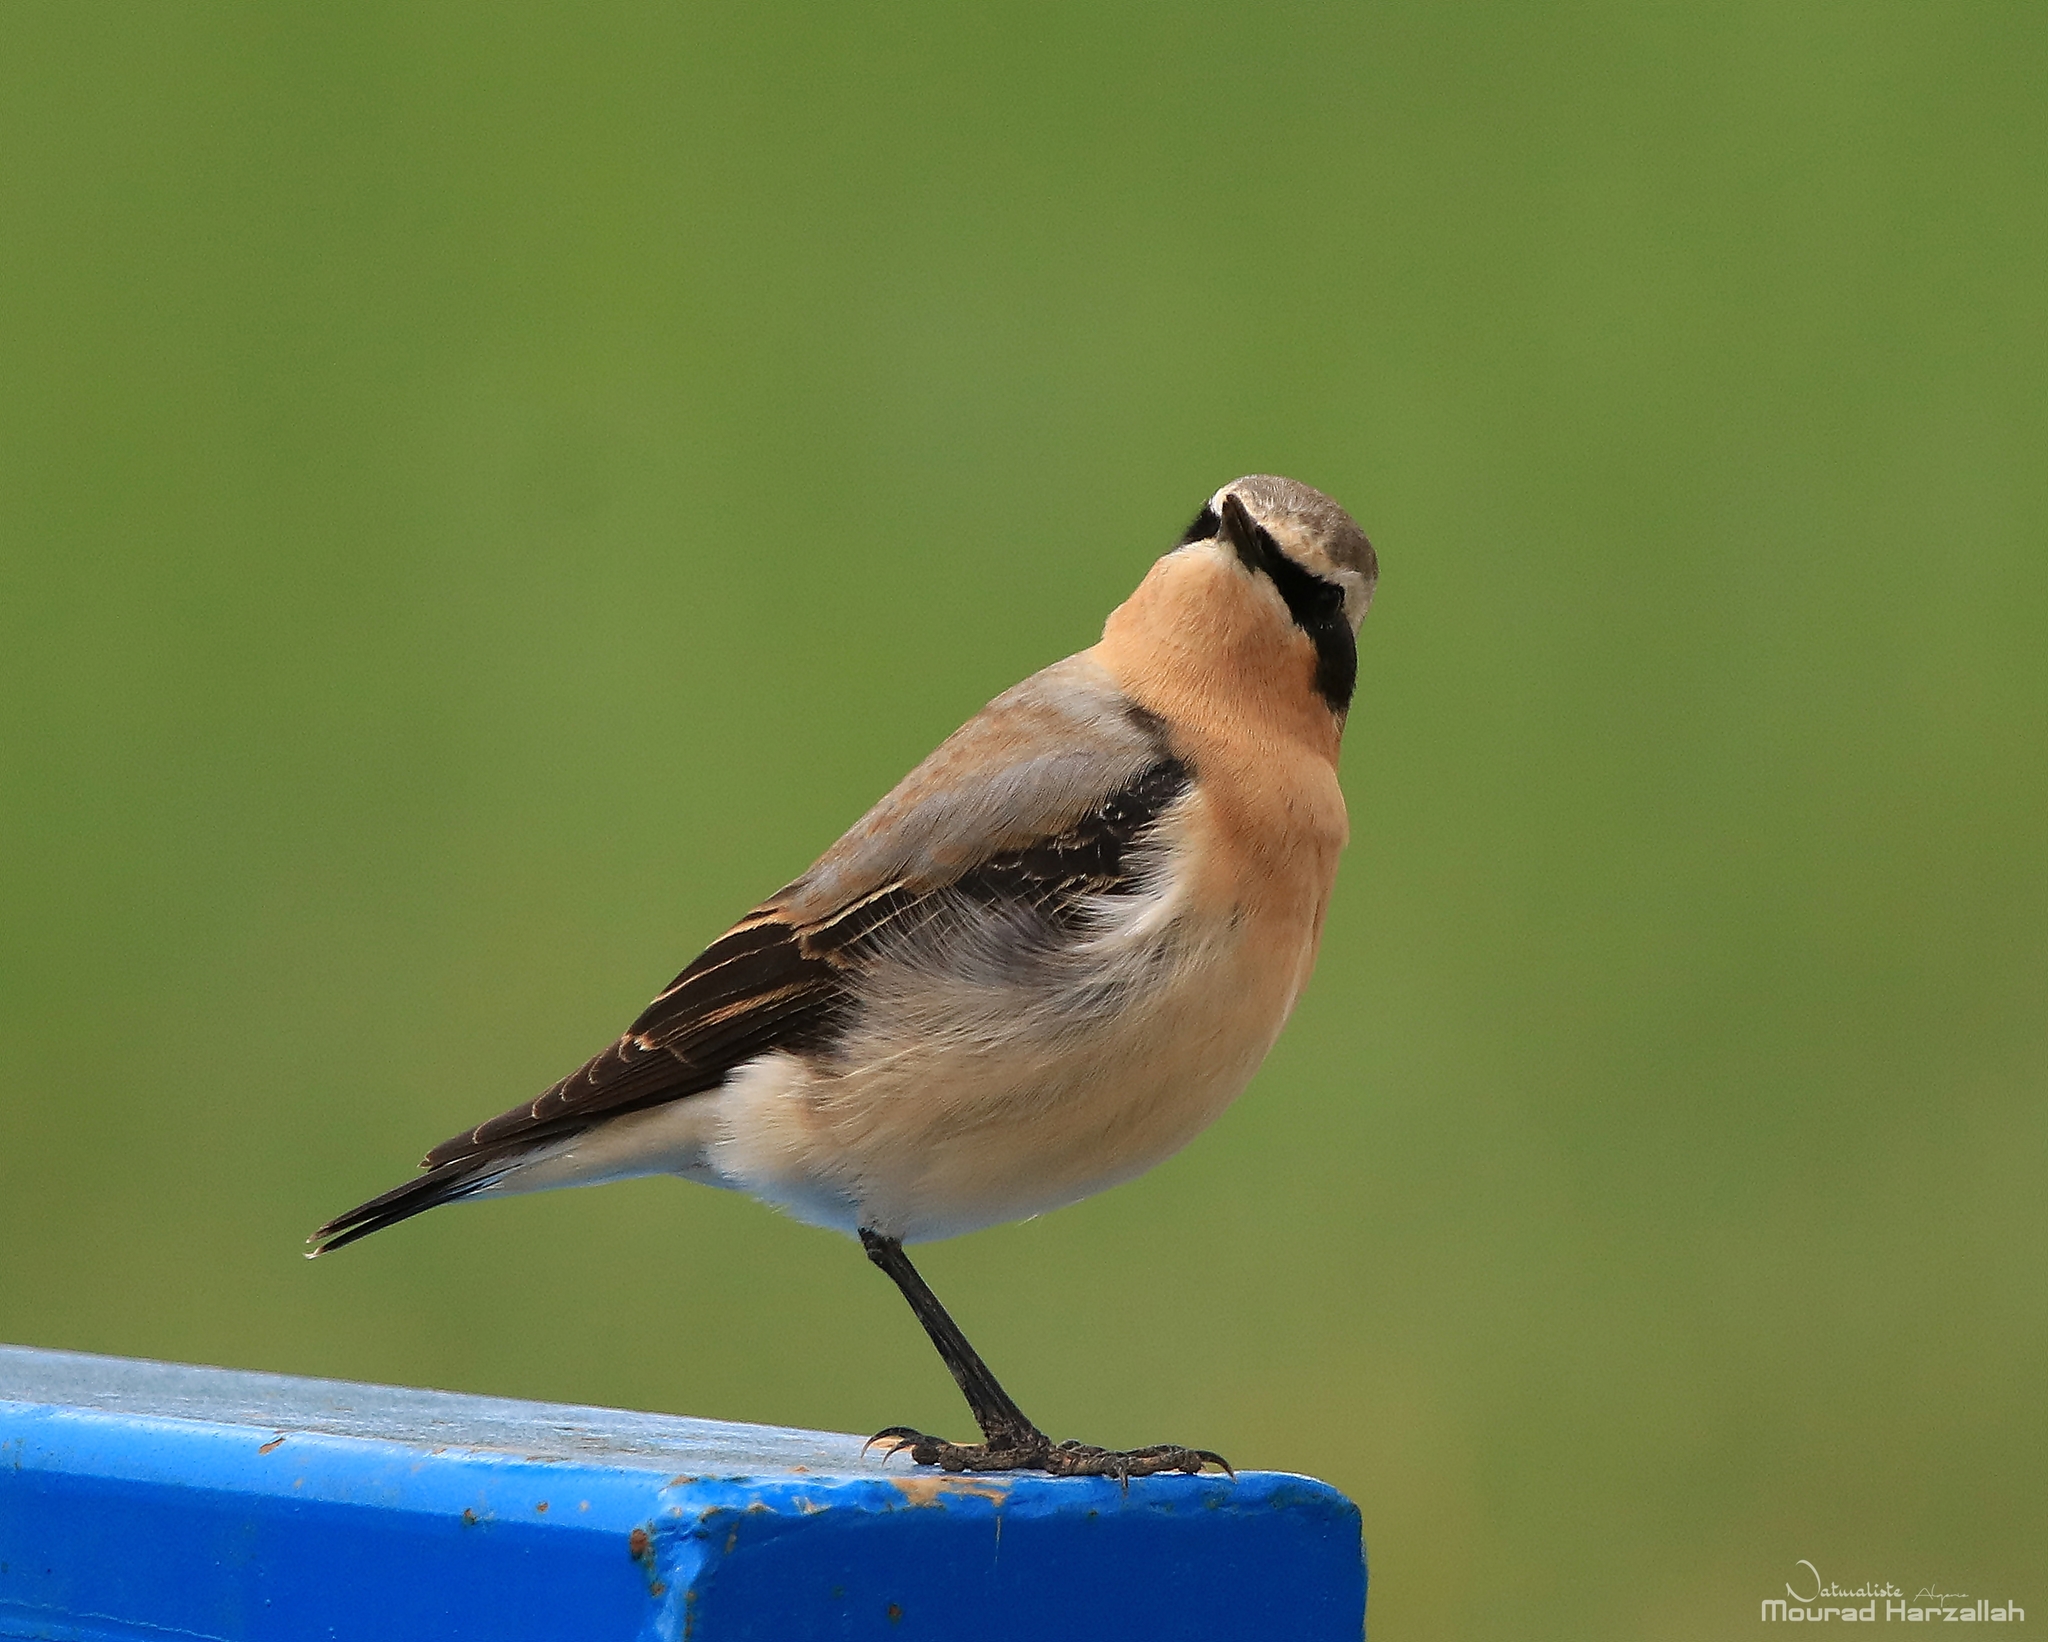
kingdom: Animalia
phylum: Chordata
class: Aves
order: Passeriformes
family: Muscicapidae
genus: Oenanthe
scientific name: Oenanthe oenanthe
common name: Northern wheatear
